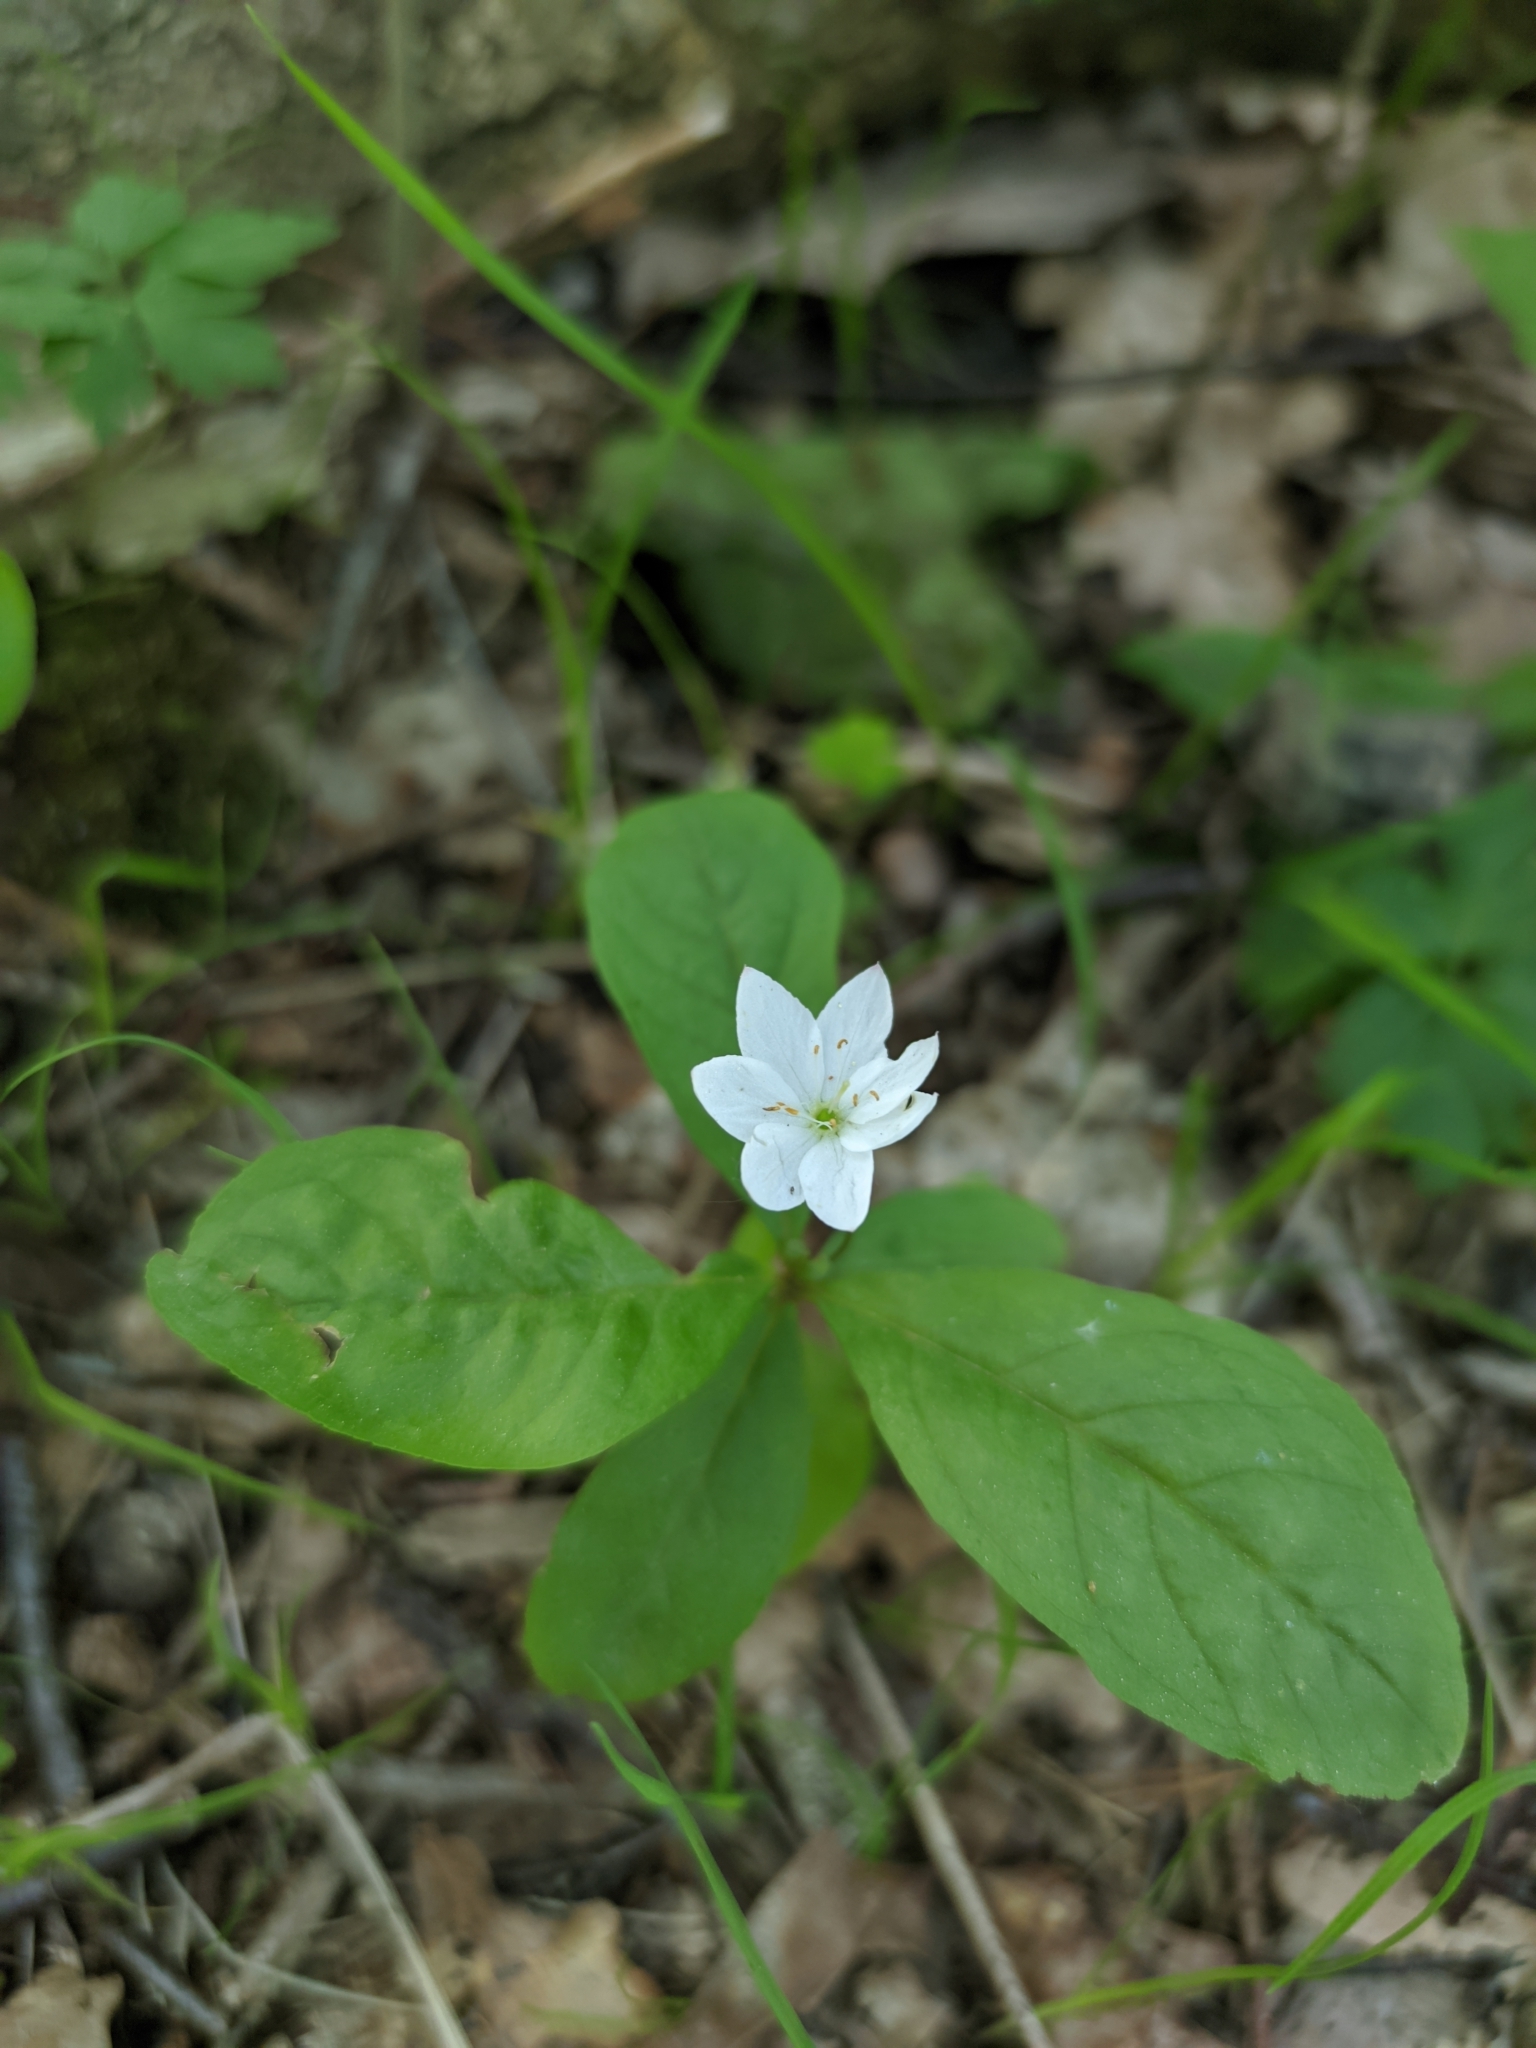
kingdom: Plantae
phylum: Tracheophyta
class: Magnoliopsida
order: Ericales
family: Primulaceae
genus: Lysimachia
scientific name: Lysimachia europaea
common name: Arctic starflower
